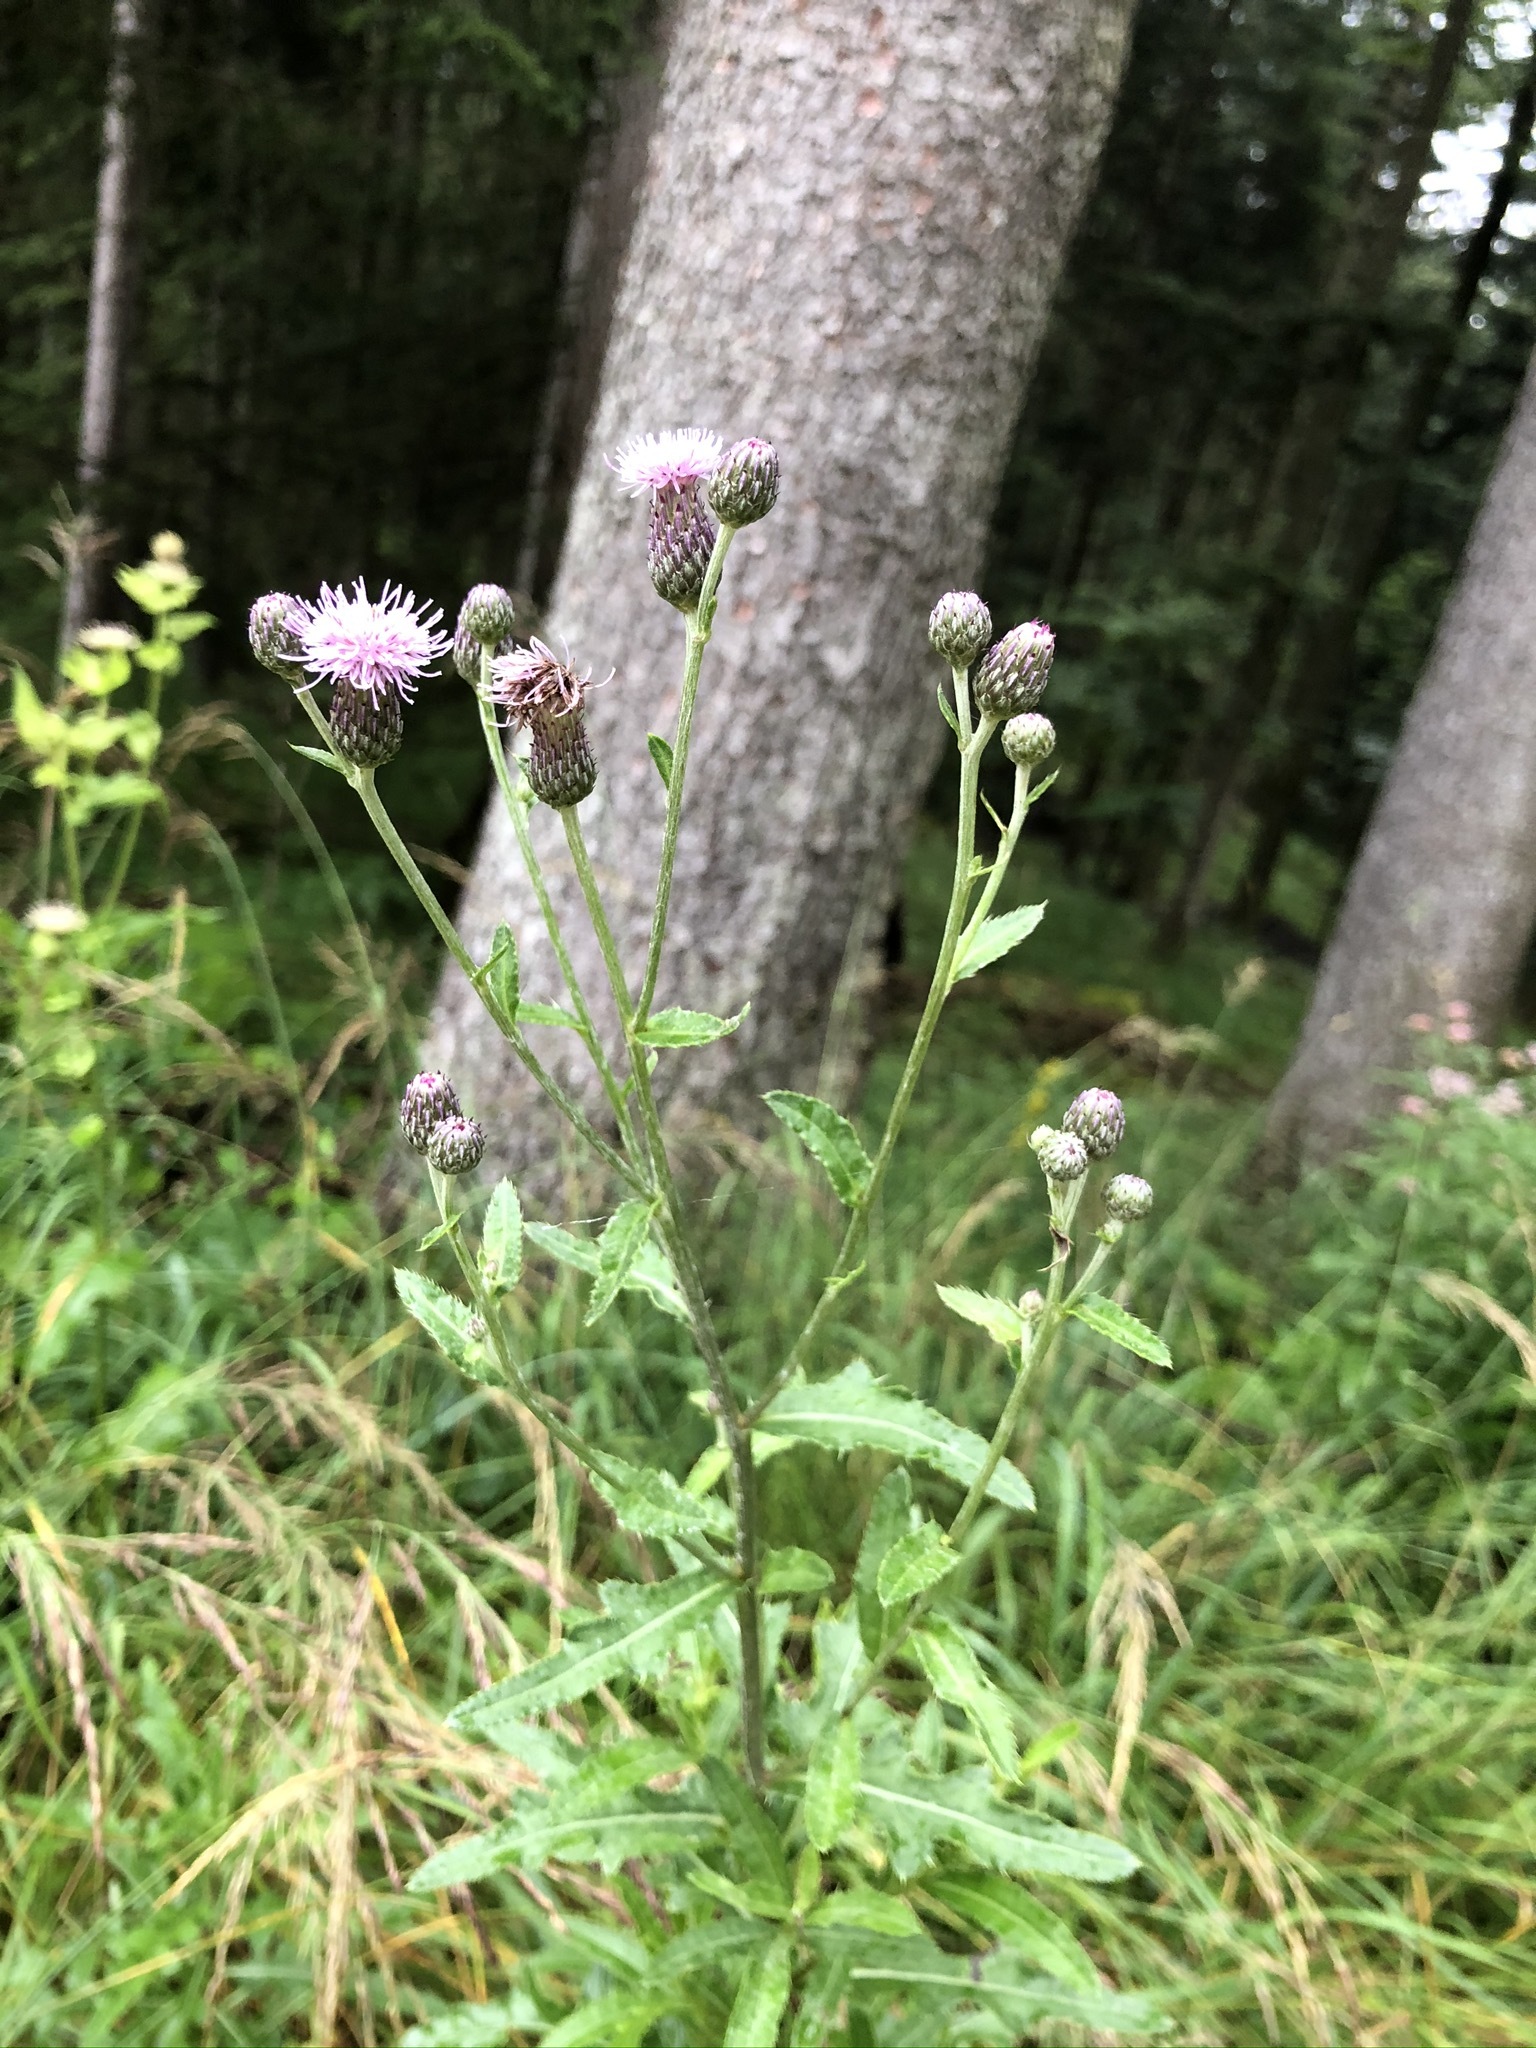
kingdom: Plantae
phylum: Tracheophyta
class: Magnoliopsida
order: Asterales
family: Asteraceae
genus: Cirsium
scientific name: Cirsium arvense
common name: Creeping thistle
